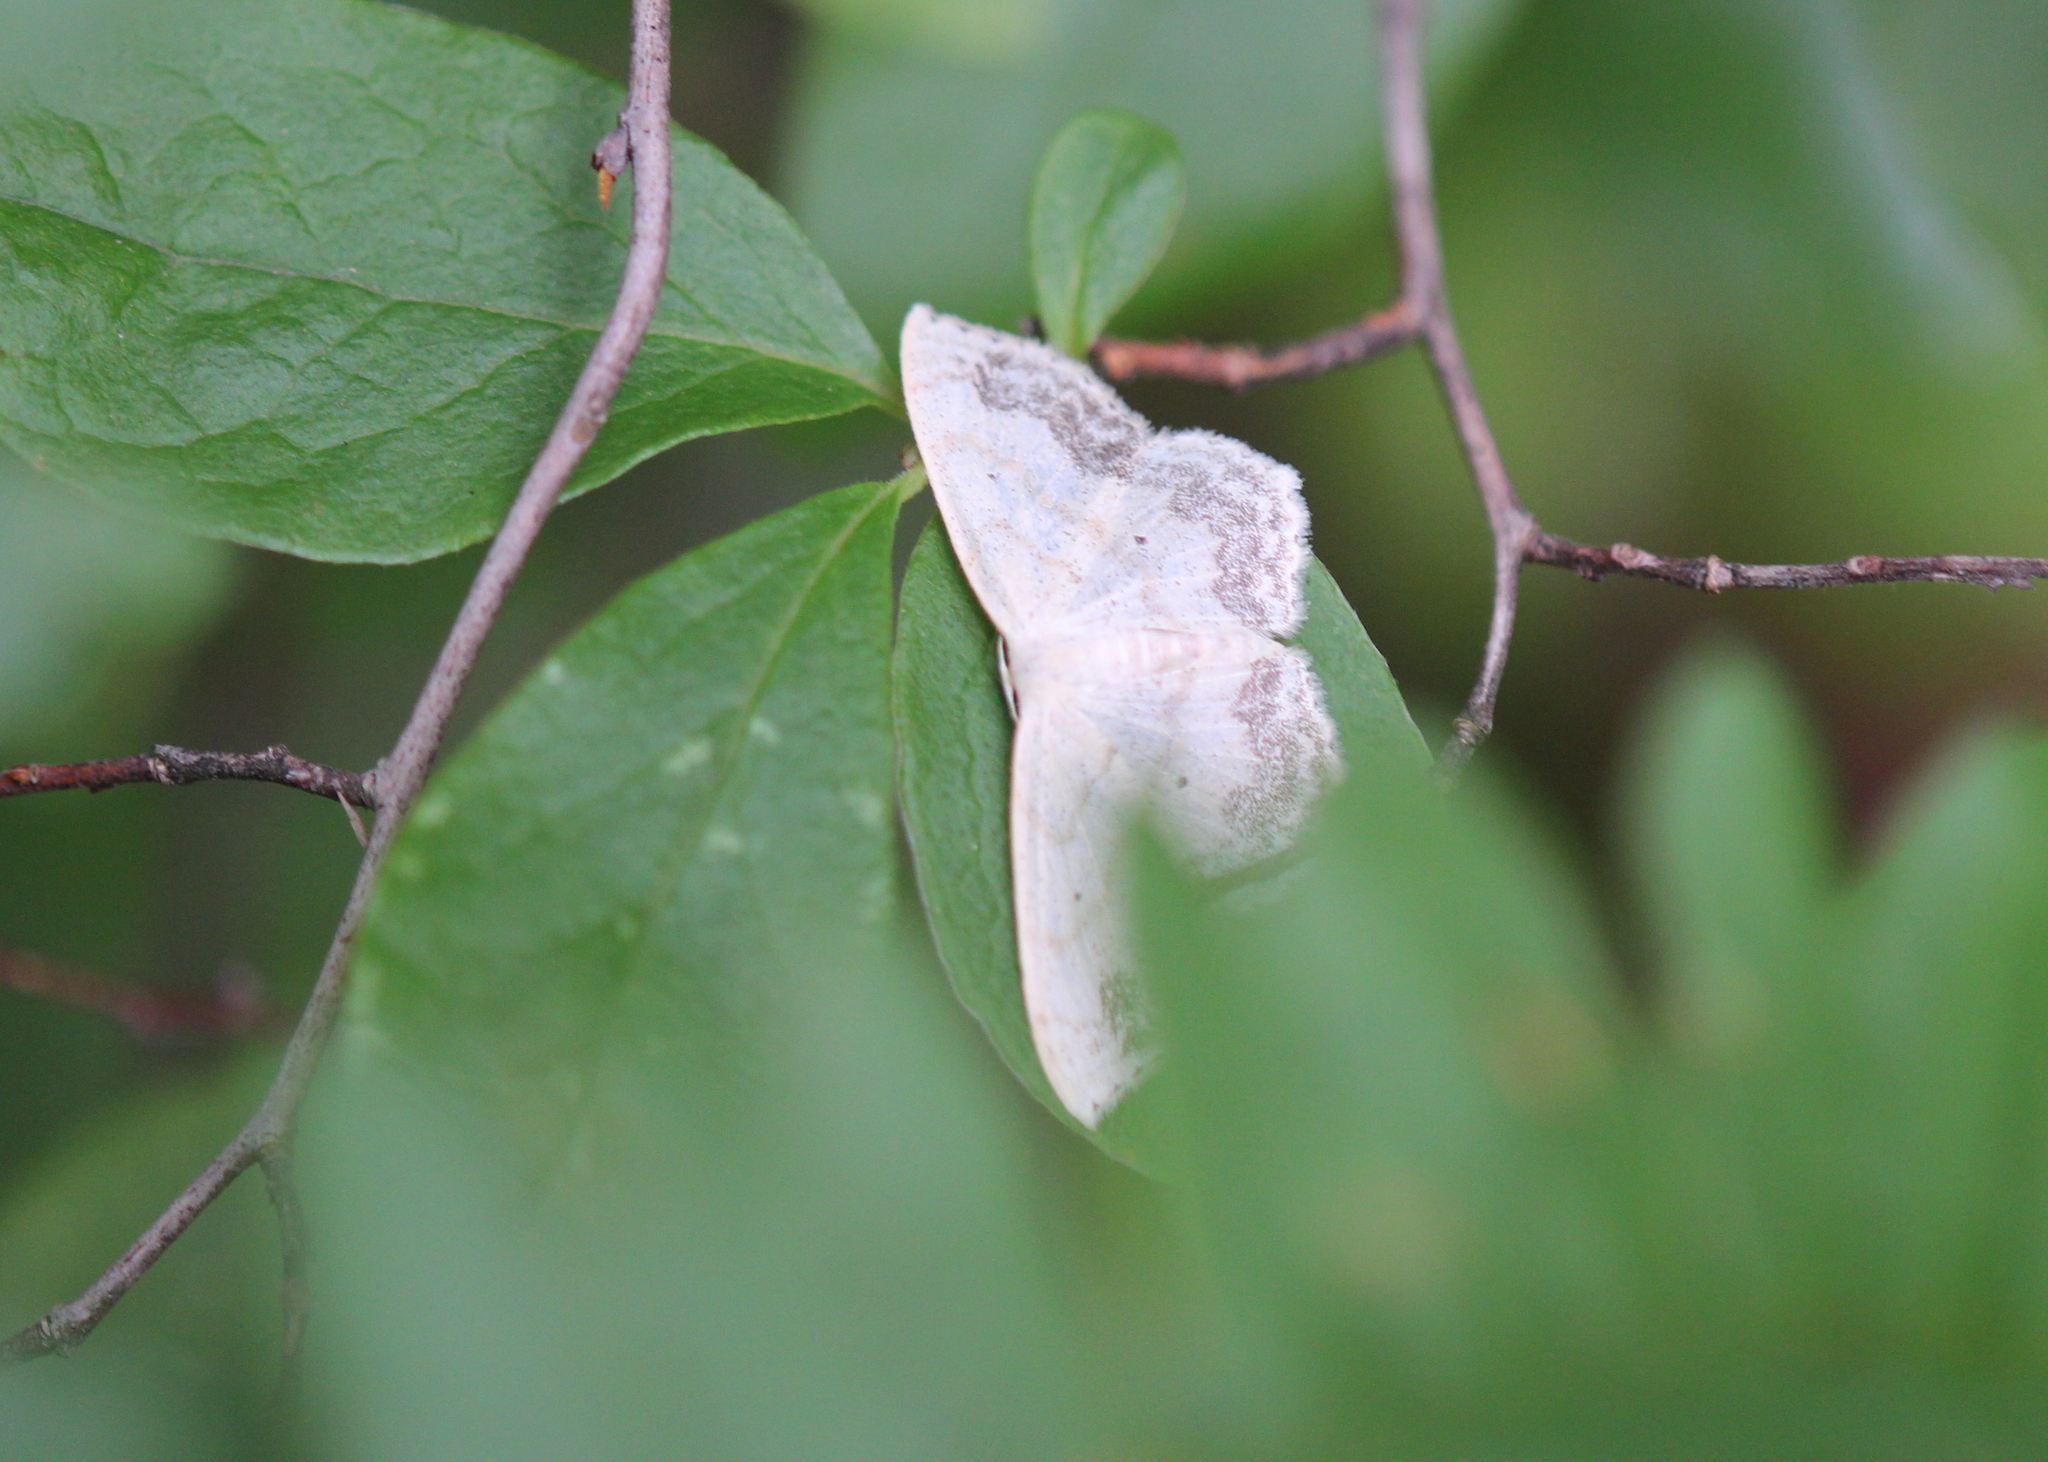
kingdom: Animalia
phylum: Arthropoda
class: Insecta
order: Lepidoptera
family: Geometridae
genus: Scopula
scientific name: Scopula limboundata
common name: Large lace border
